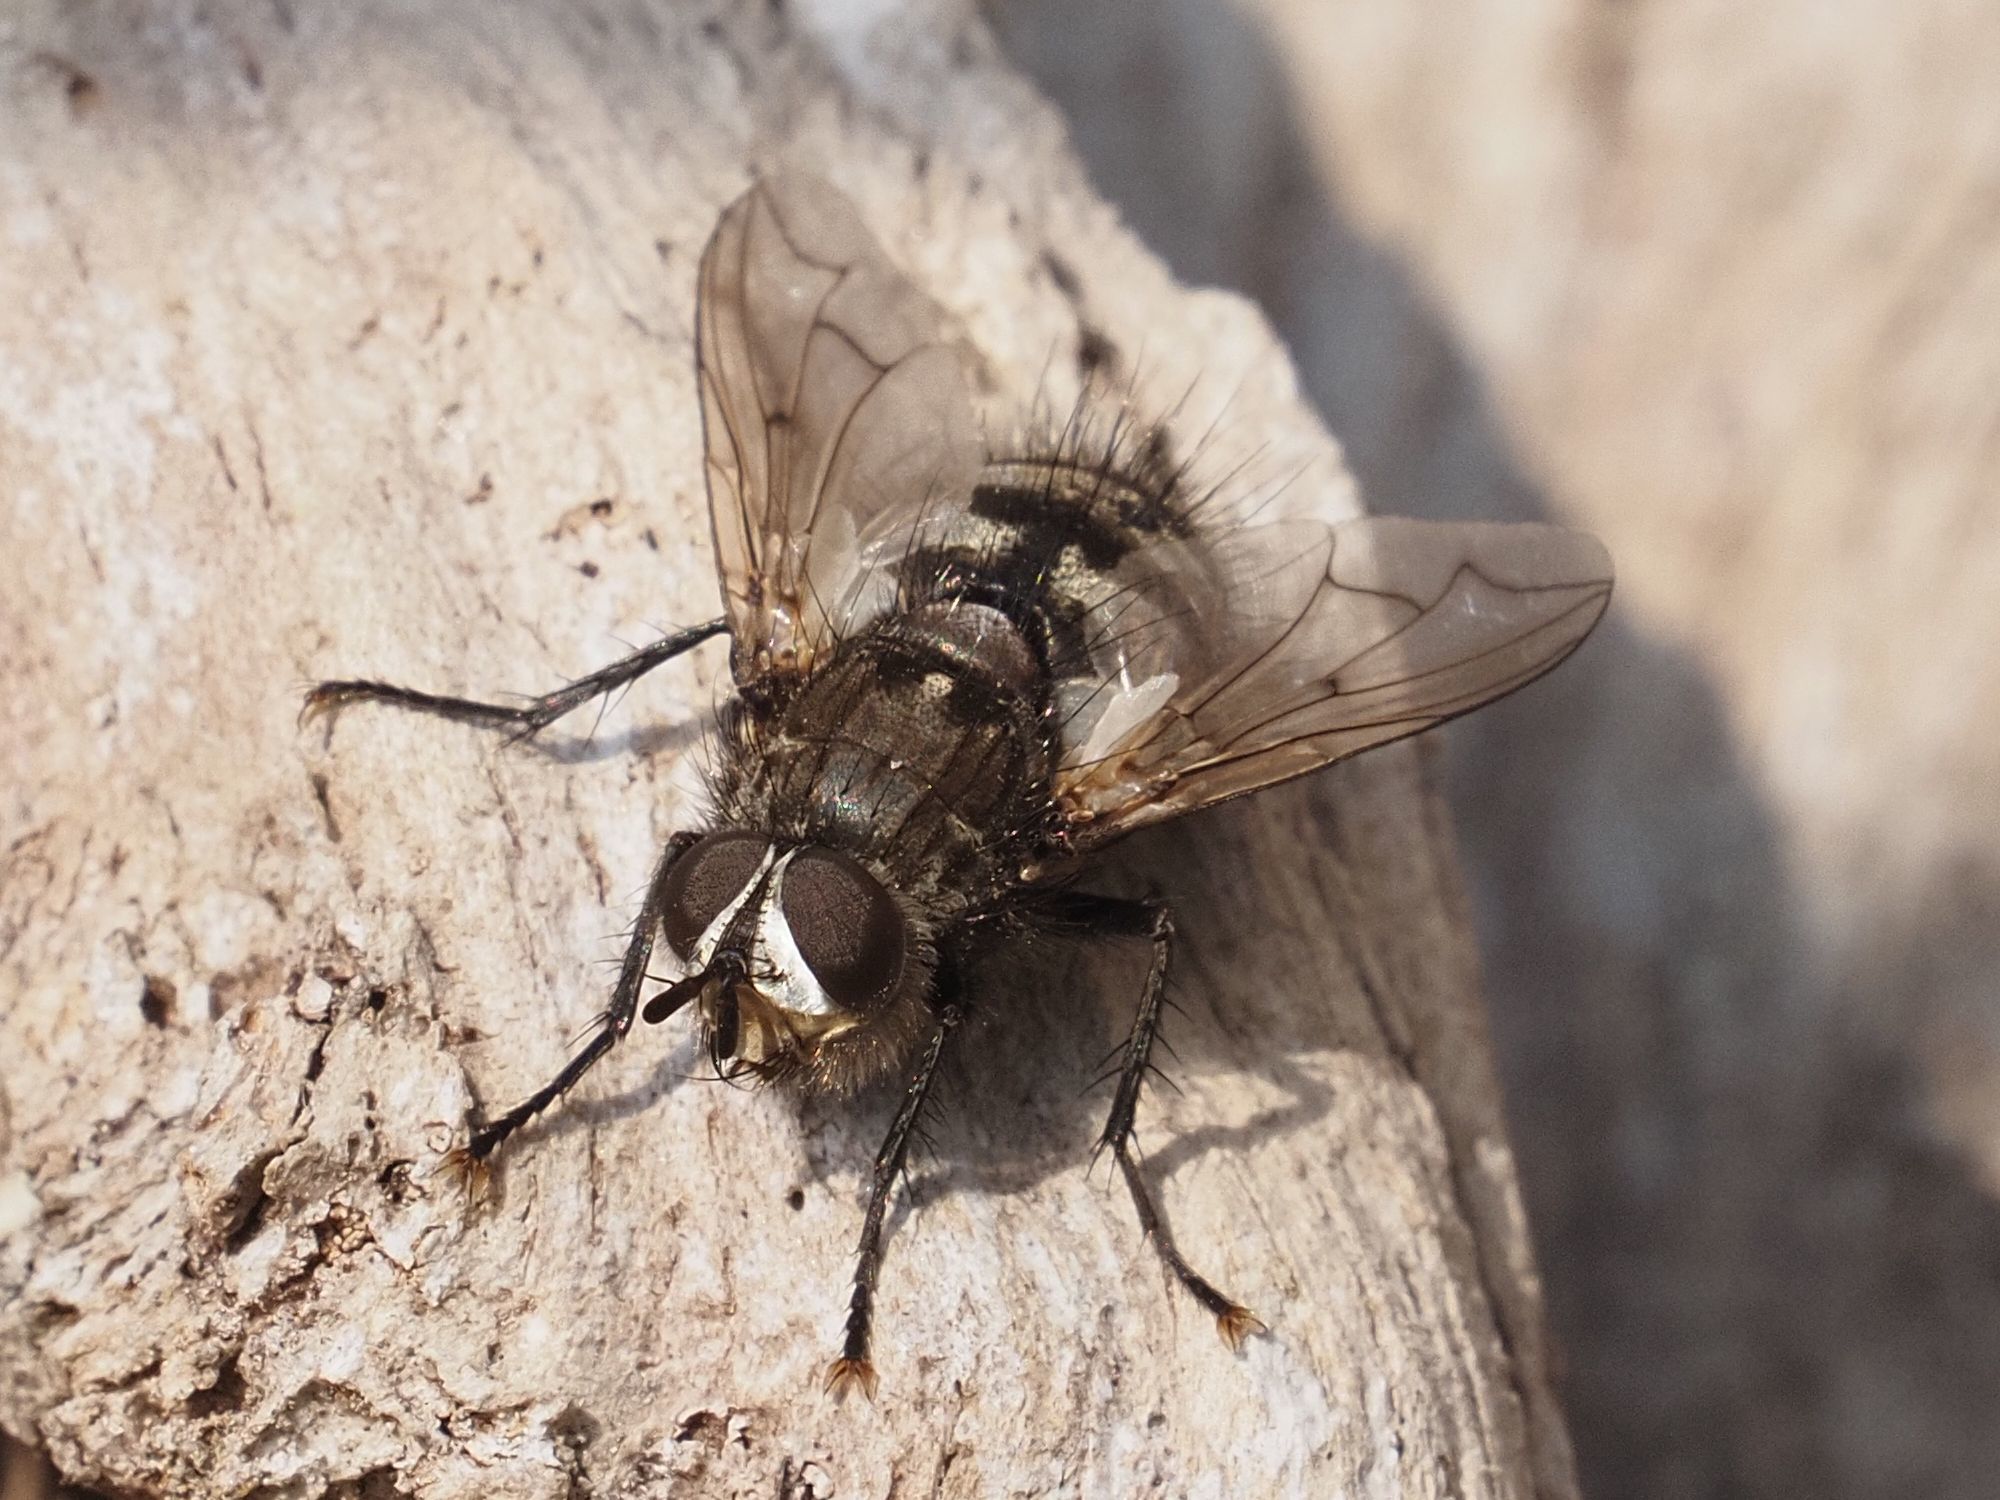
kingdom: Animalia
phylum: Arthropoda
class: Insecta
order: Diptera
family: Tachinidae
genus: Panzeria
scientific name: Panzeria puparum
